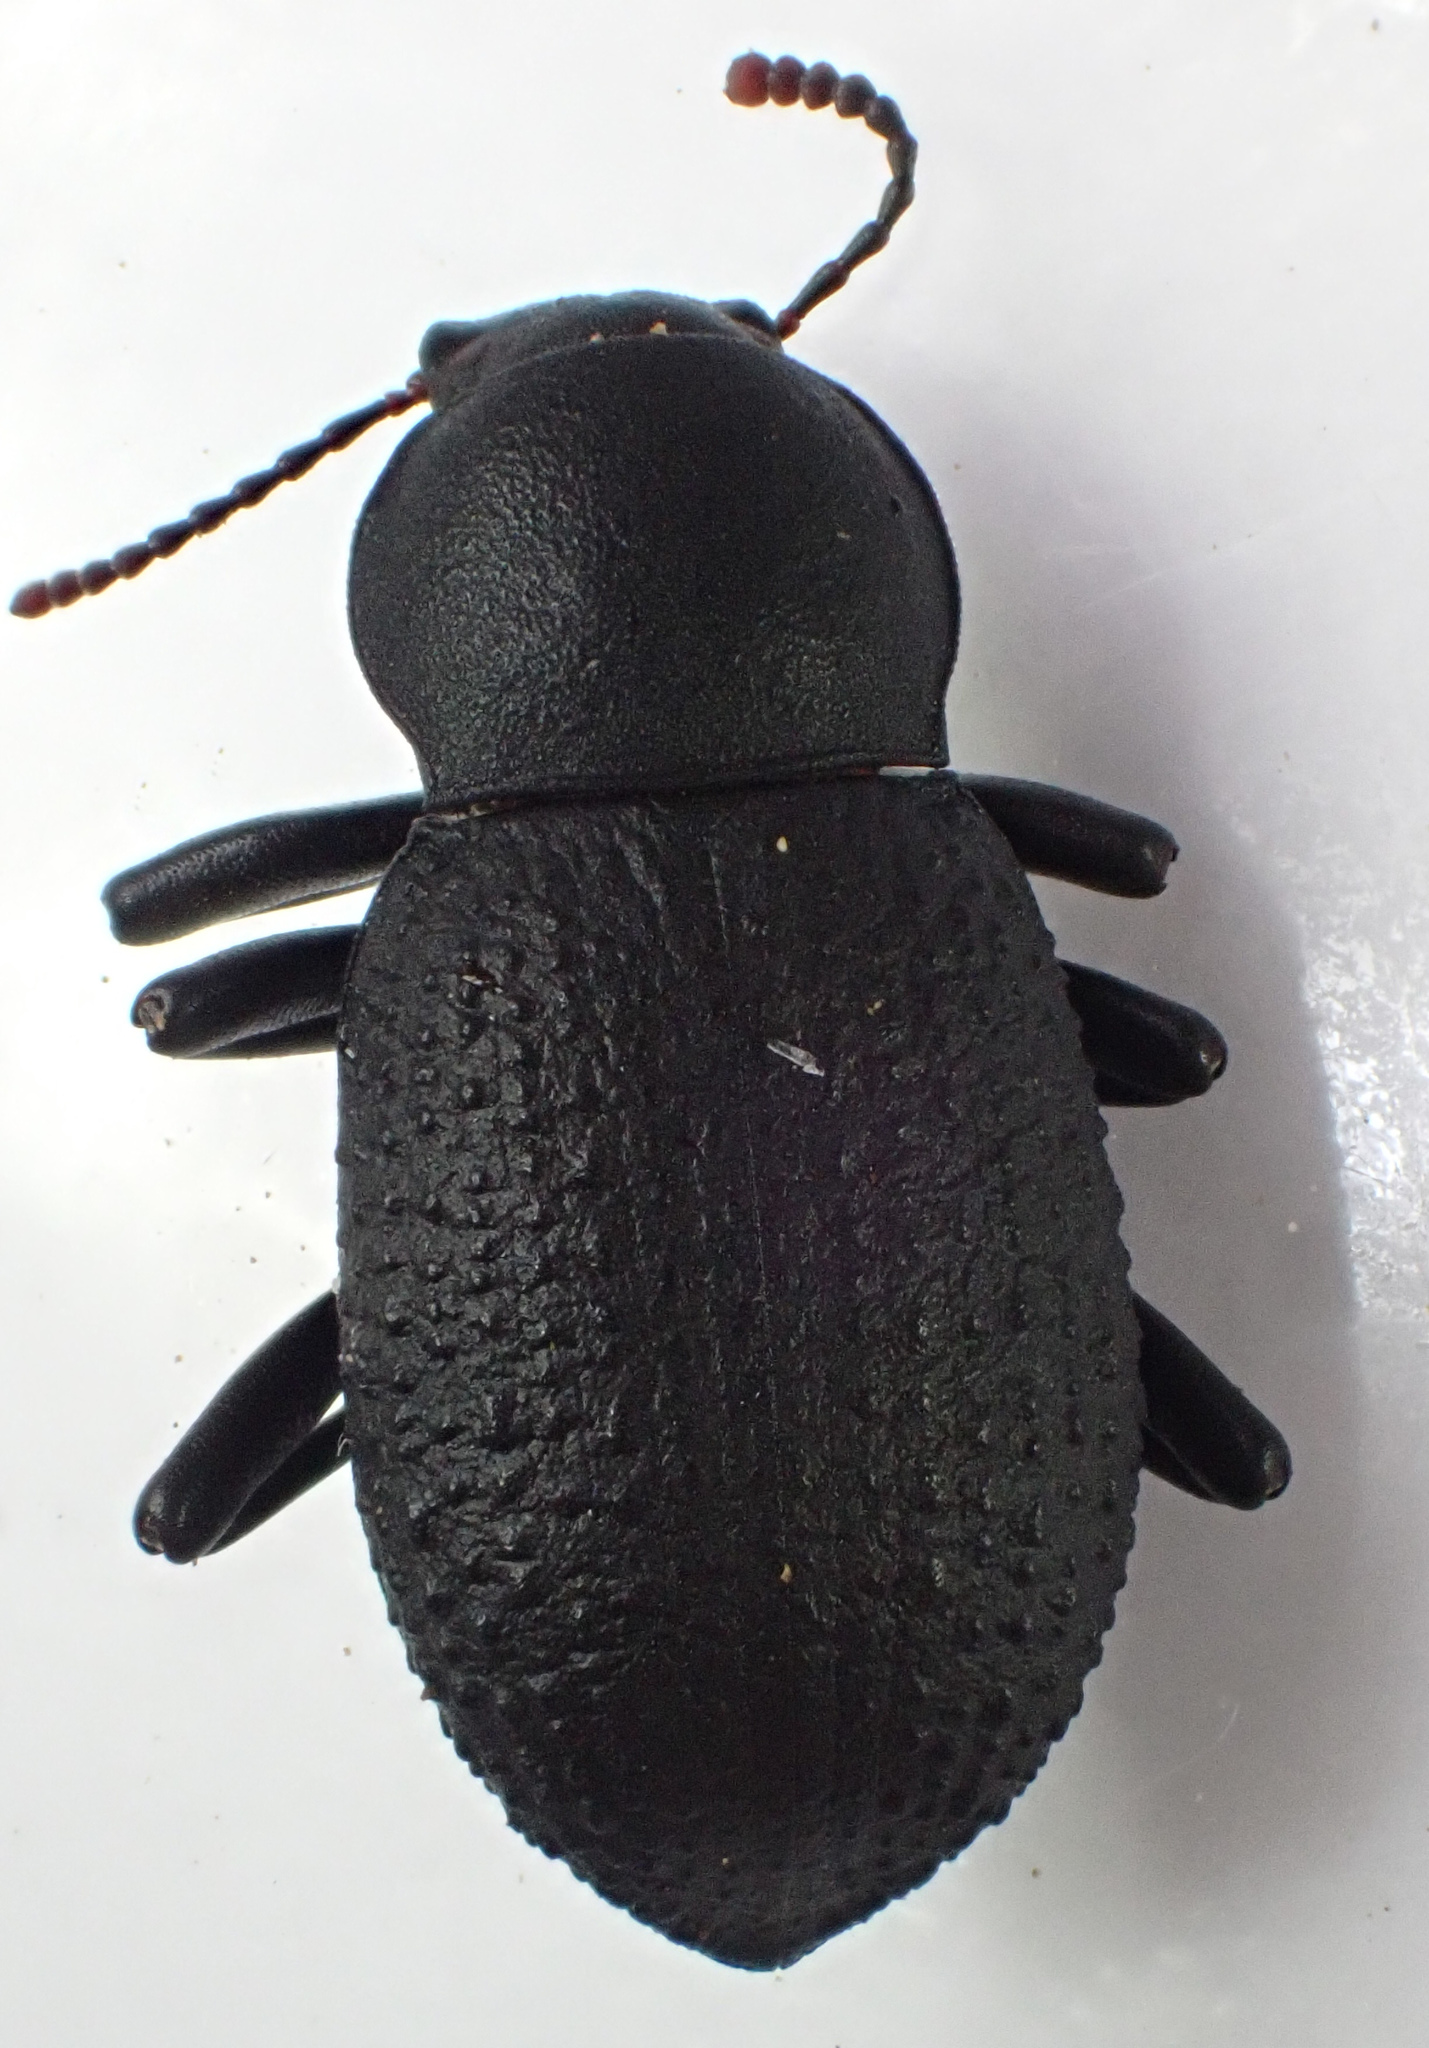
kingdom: Animalia
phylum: Arthropoda
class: Insecta
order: Coleoptera
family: Tenebrionidae
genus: Cibdelis
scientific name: Cibdelis blaschkii
